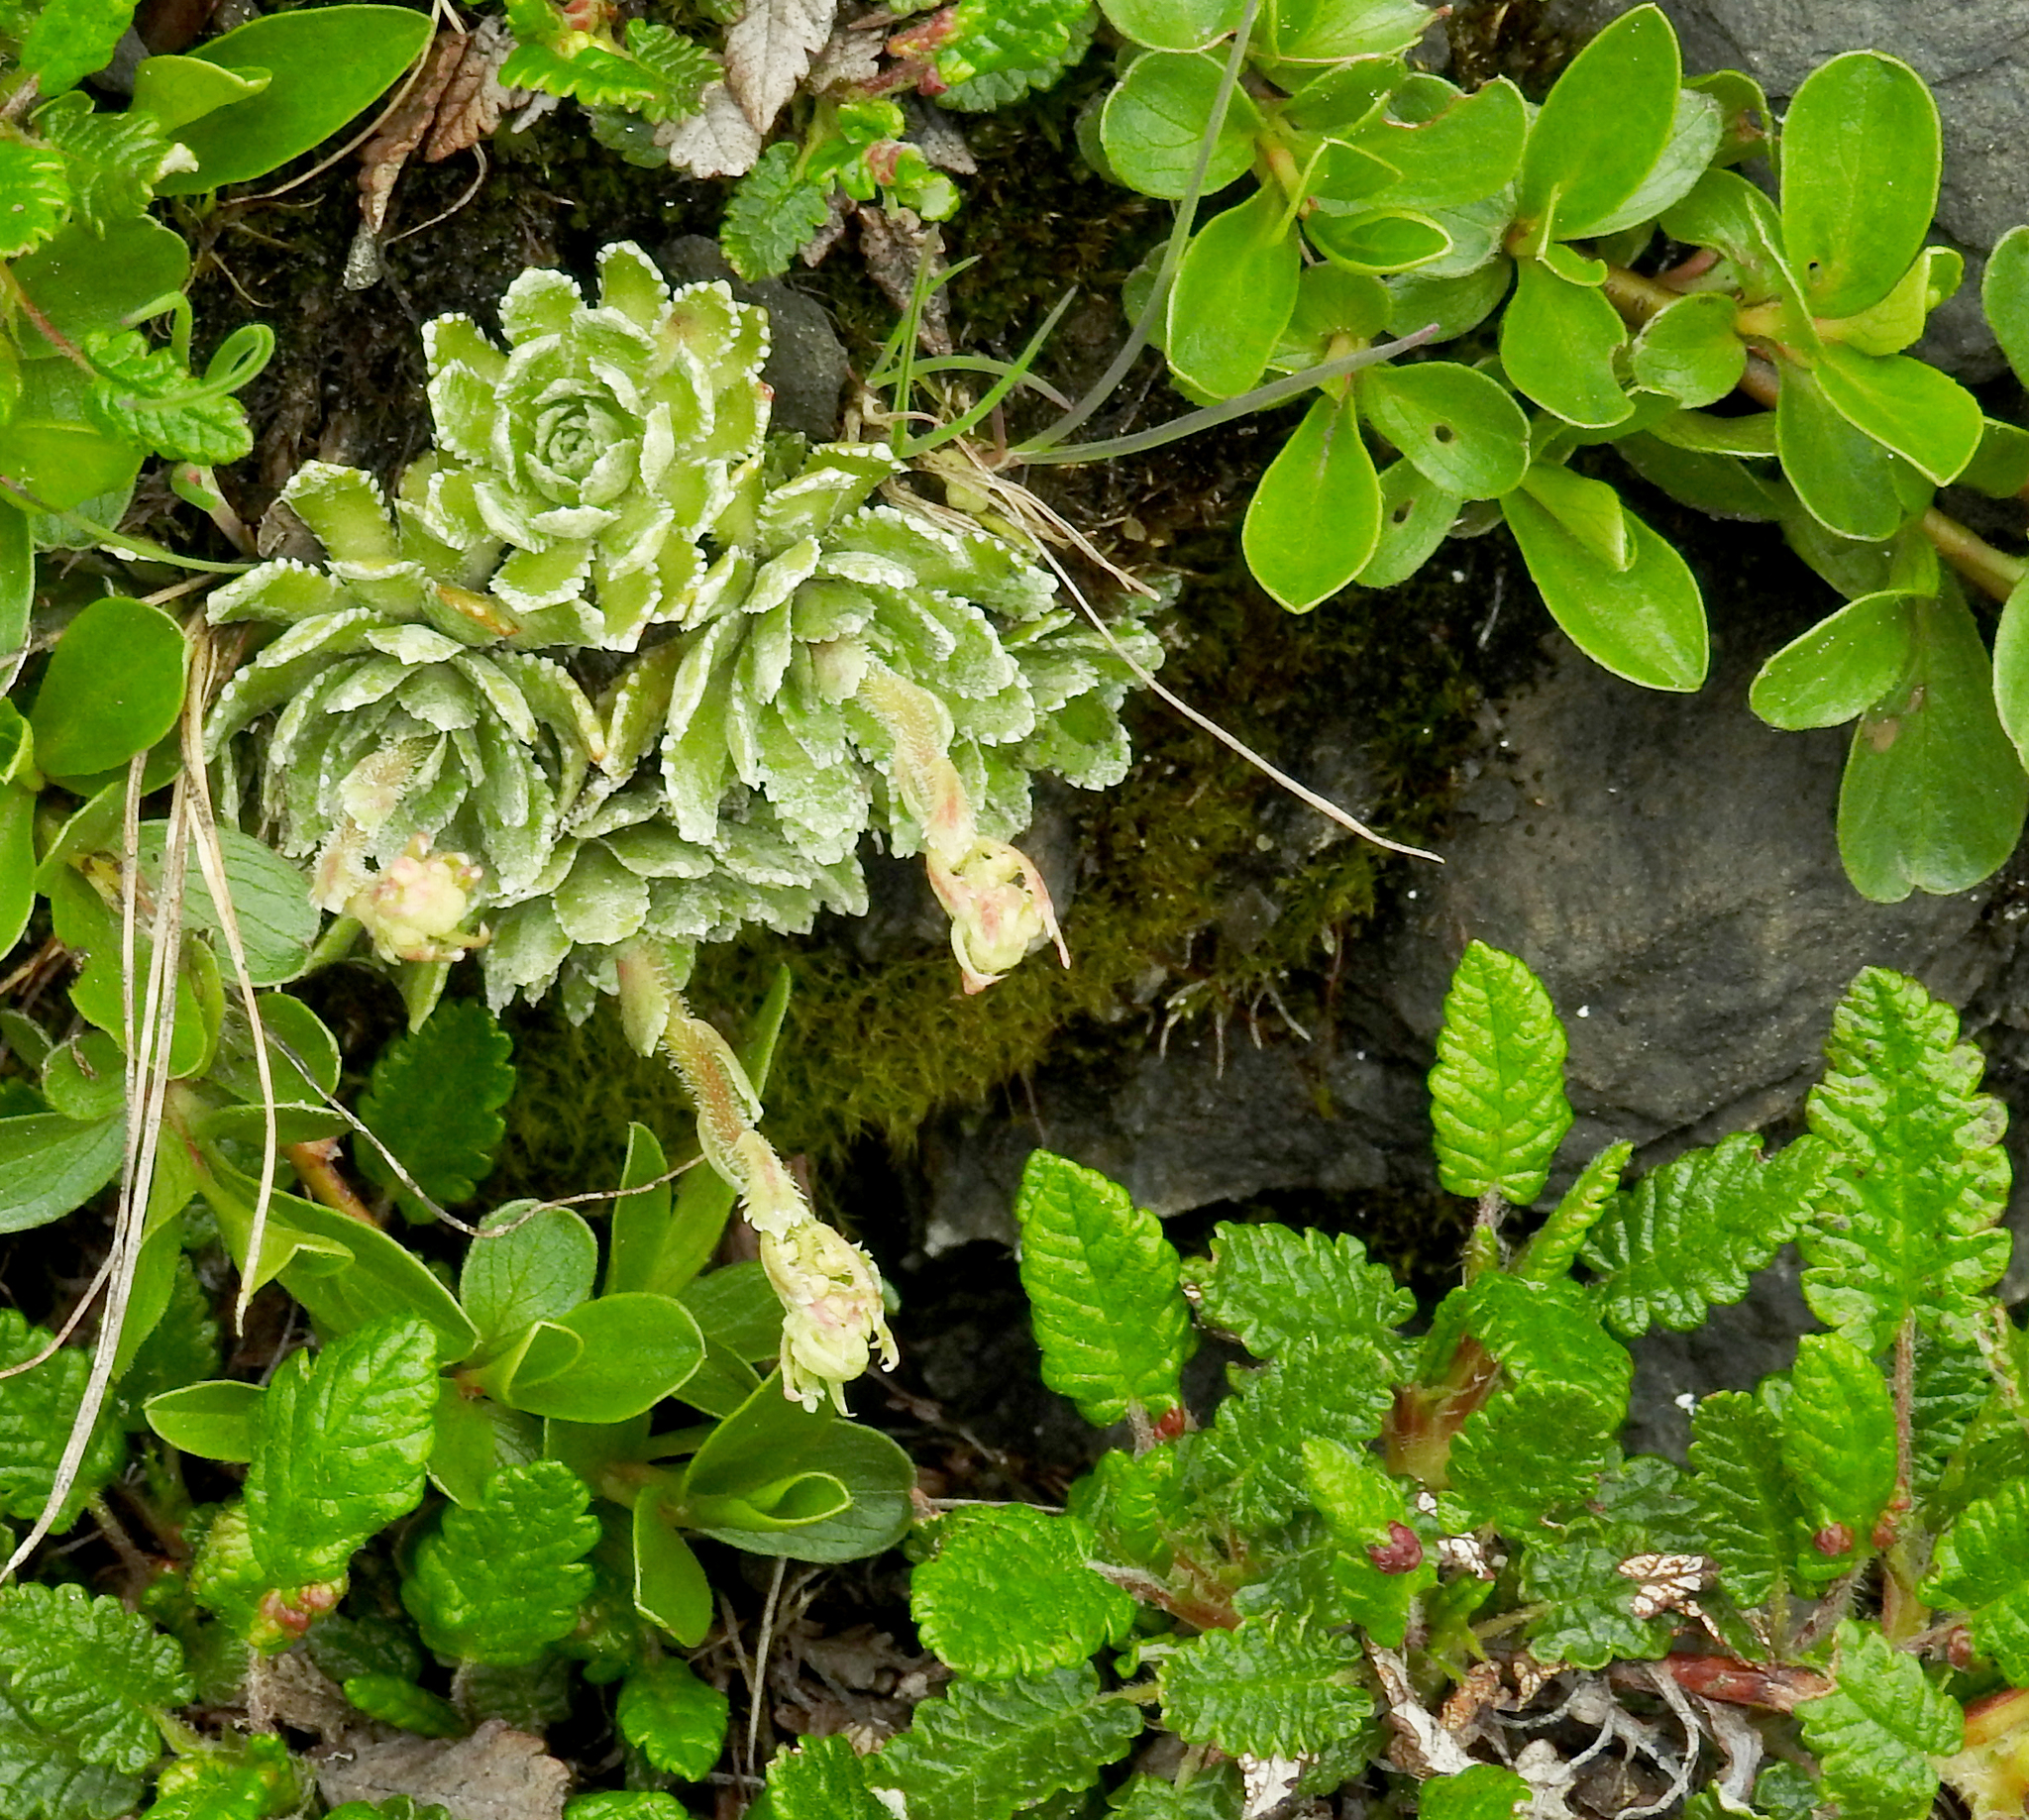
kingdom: Plantae
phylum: Tracheophyta
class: Magnoliopsida
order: Saxifragales
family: Saxifragaceae
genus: Saxifraga
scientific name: Saxifraga paniculata
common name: Livelong saxifrage
